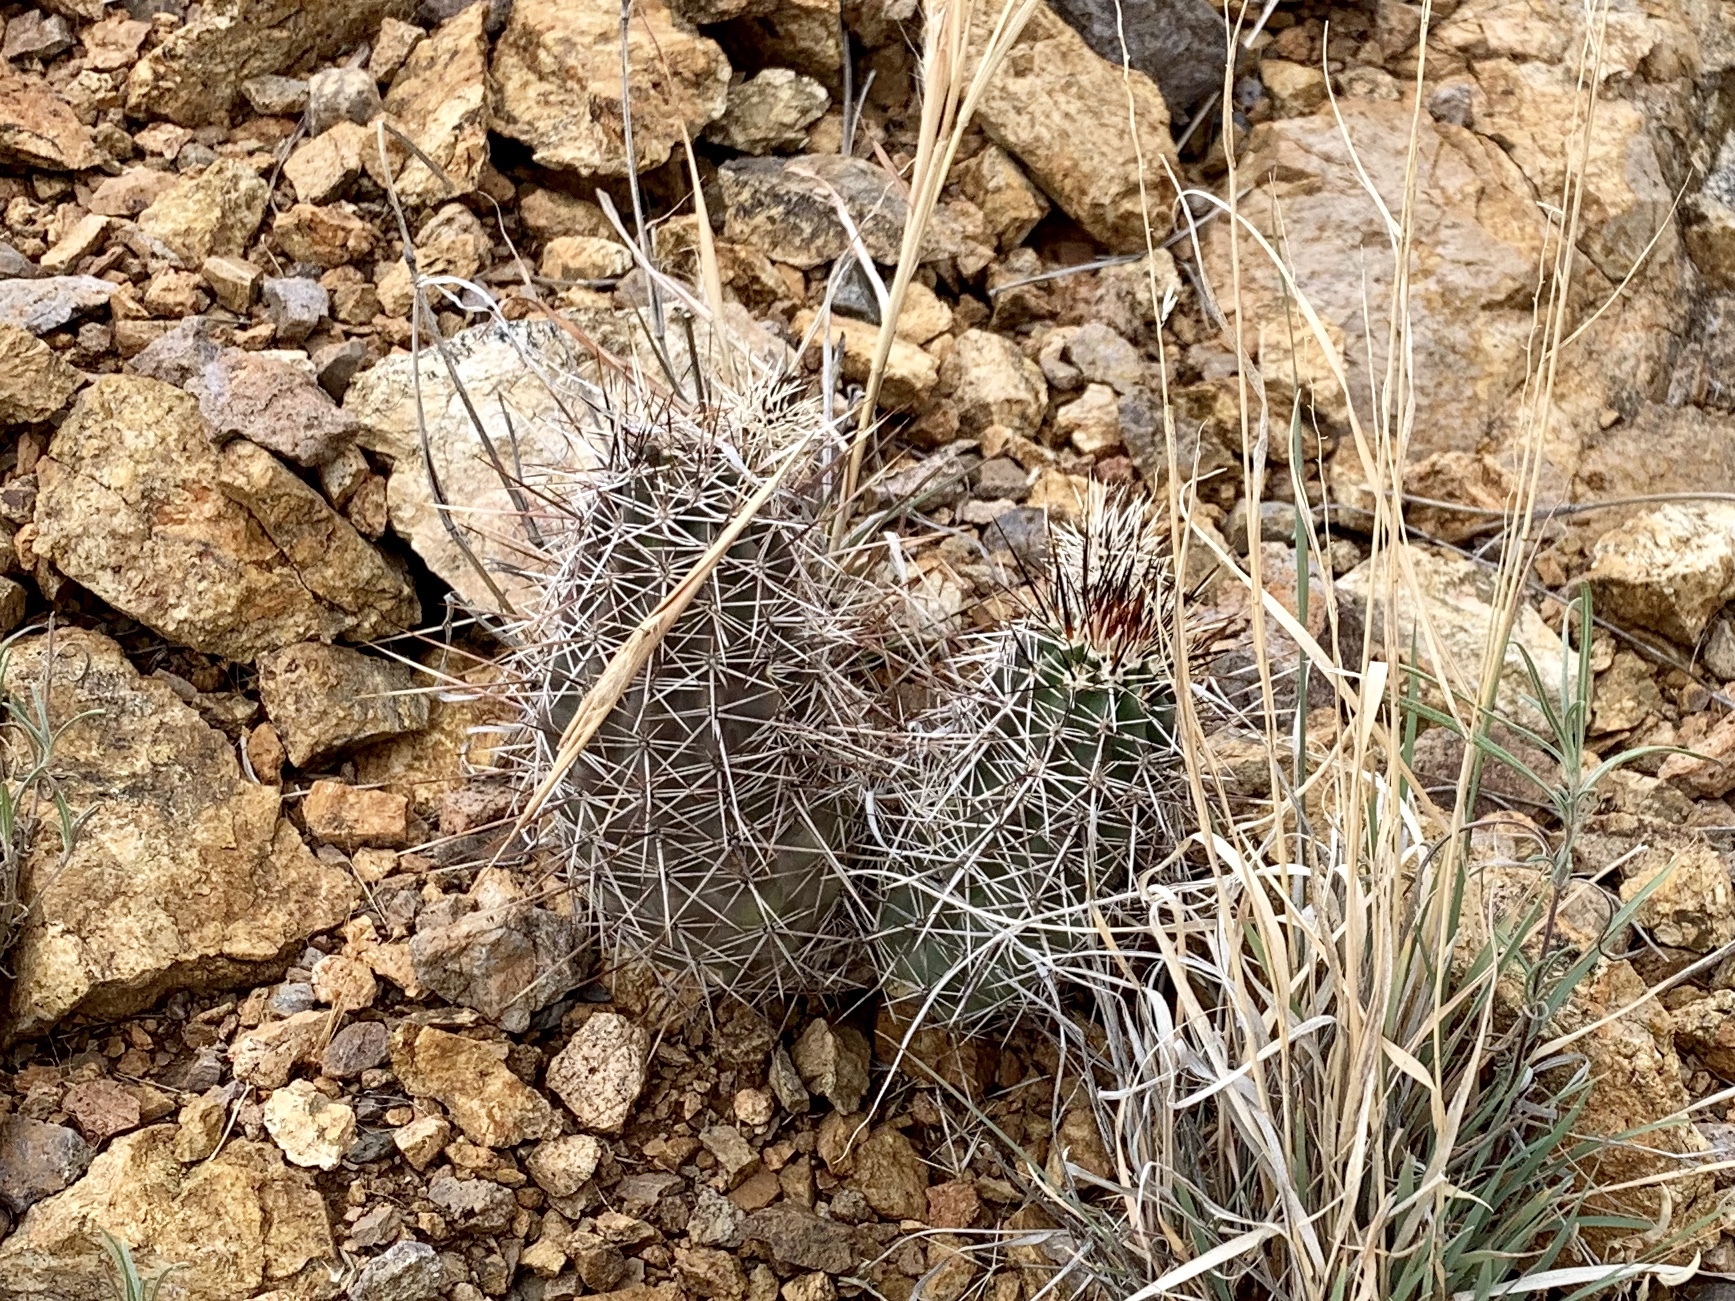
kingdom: Plantae
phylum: Tracheophyta
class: Magnoliopsida
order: Caryophyllales
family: Cactaceae
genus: Echinocereus
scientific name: Echinocereus fendleri
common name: Fendler's hedgehog cactus
